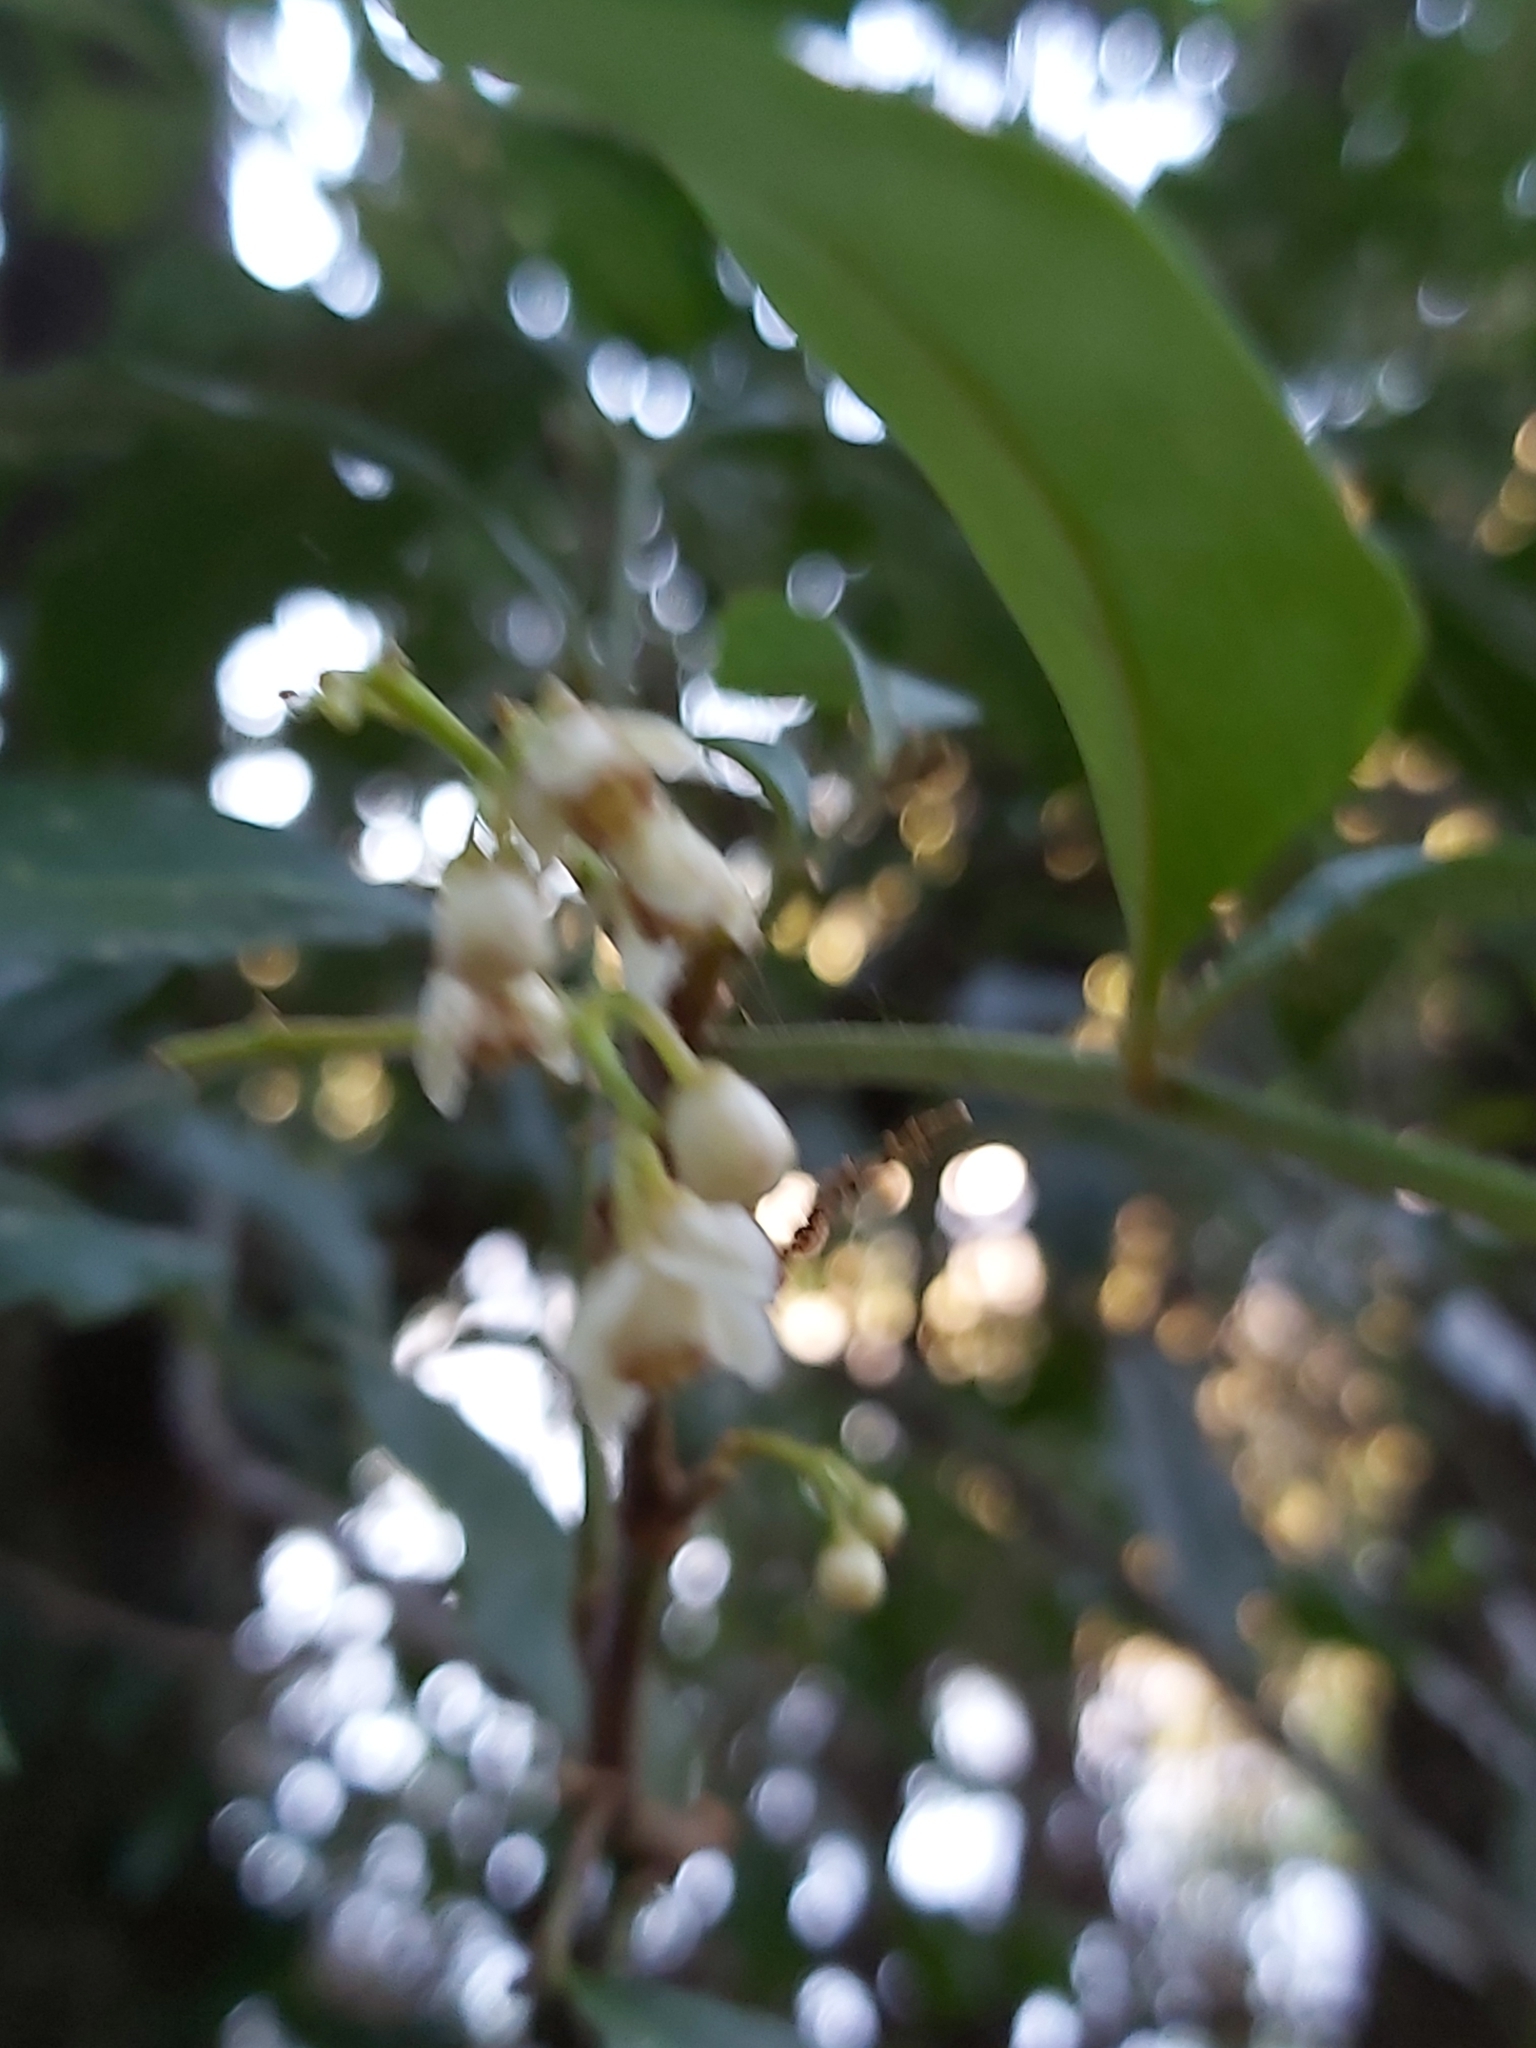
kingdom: Plantae
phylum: Tracheophyta
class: Magnoliopsida
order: Sapindales
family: Meliaceae
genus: Synoum
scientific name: Synoum glandulosum
